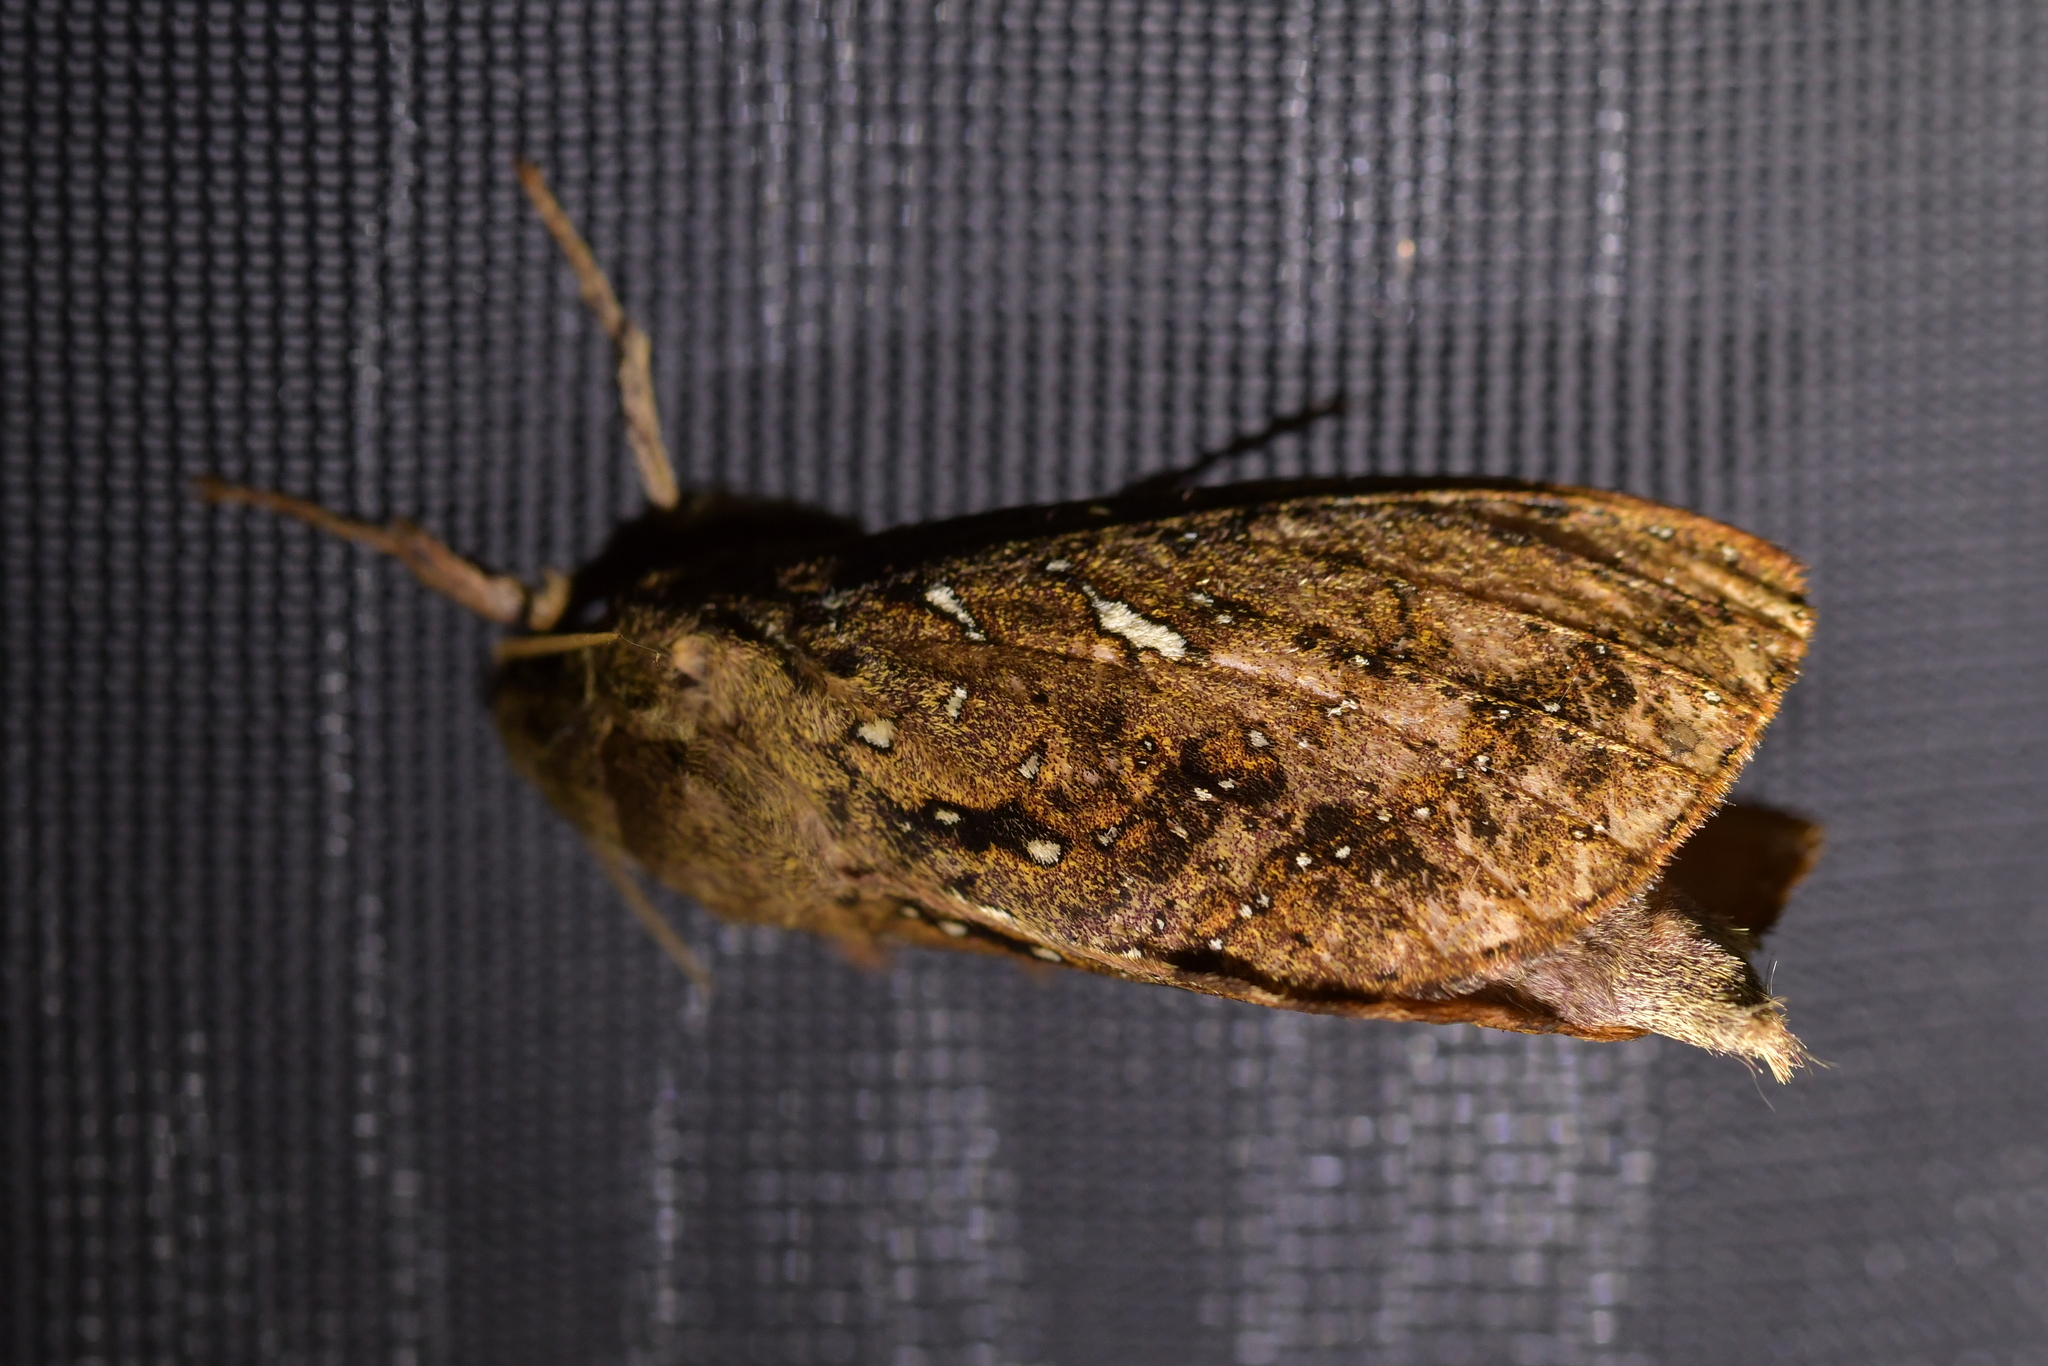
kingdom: Animalia
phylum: Arthropoda
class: Insecta
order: Lepidoptera
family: Hepialidae
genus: Dumbletonius
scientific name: Dumbletonius unimaculata
